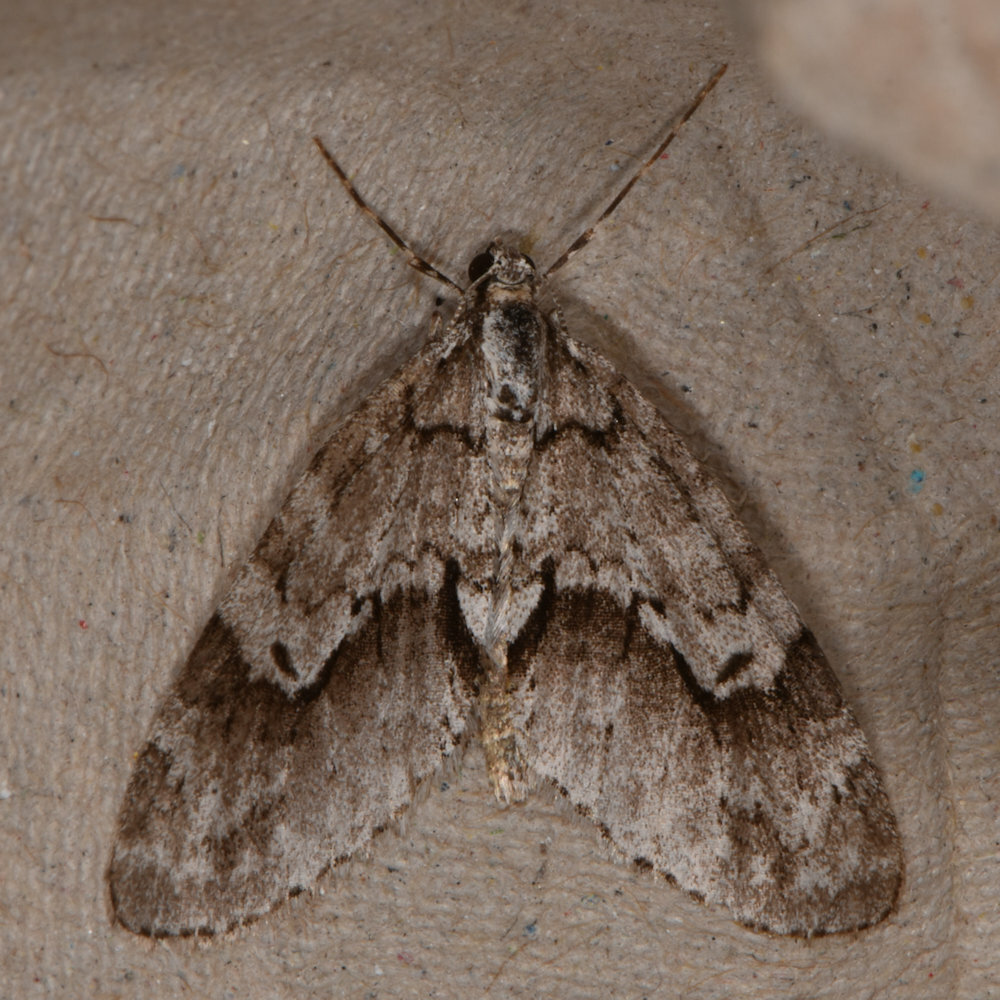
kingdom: Animalia
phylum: Arthropoda
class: Insecta
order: Lepidoptera
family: Geometridae
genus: Cladara
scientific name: Cladara limitaria
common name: Mottled gray carpet
